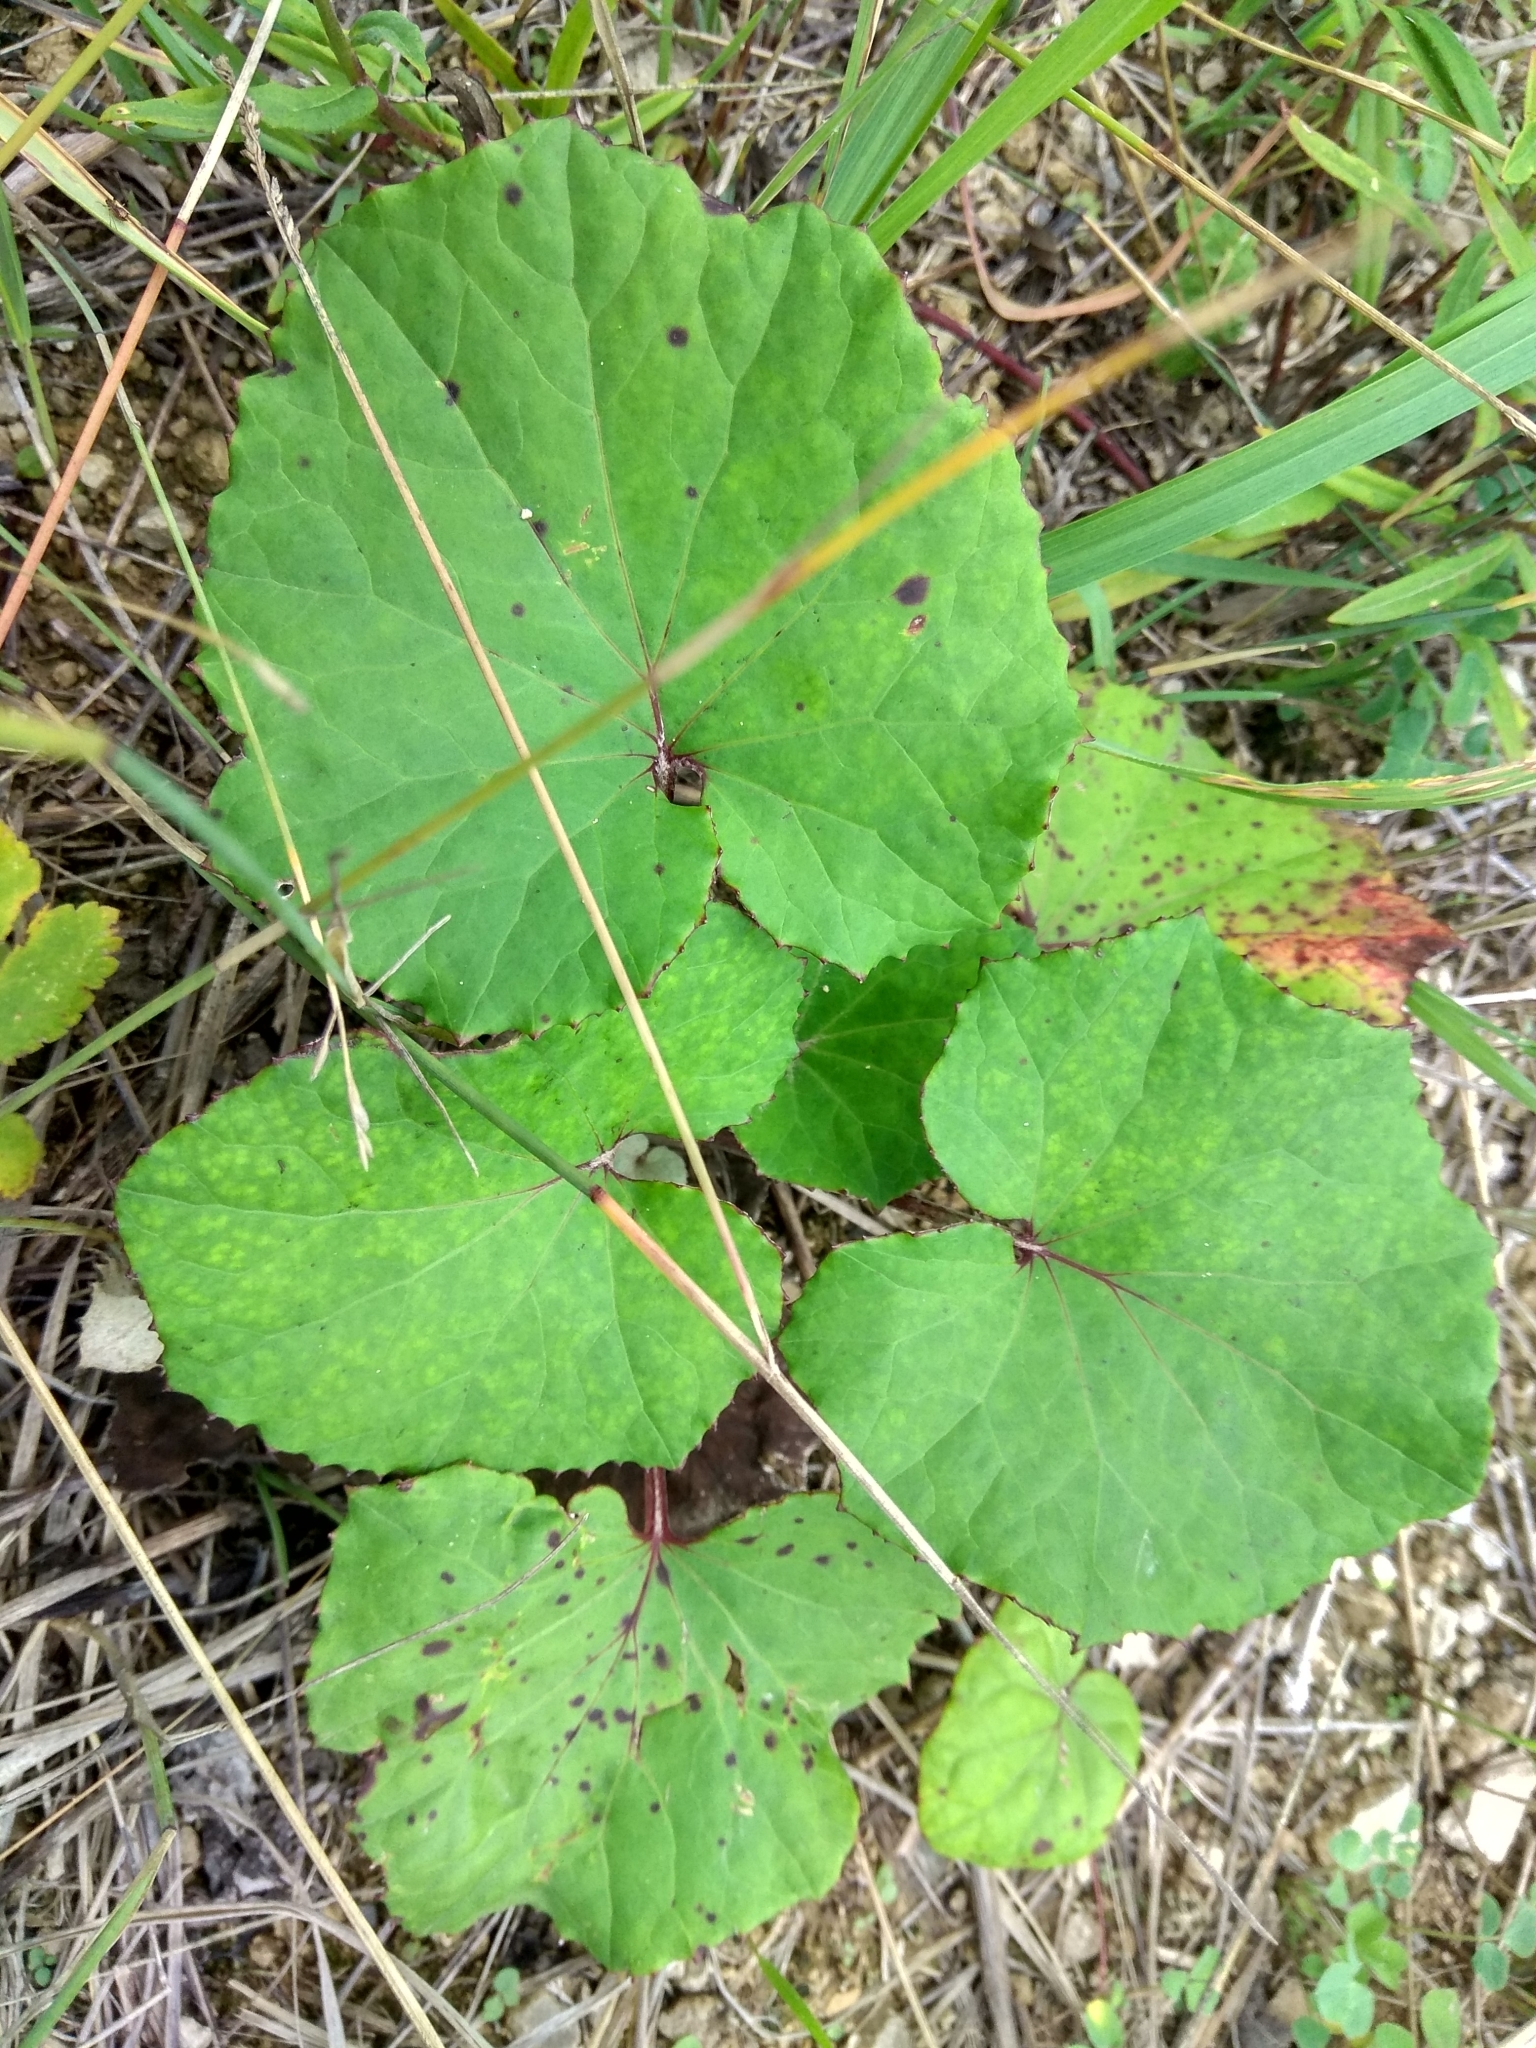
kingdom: Plantae
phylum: Tracheophyta
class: Magnoliopsida
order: Asterales
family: Asteraceae
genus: Tussilago
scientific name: Tussilago farfara
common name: Coltsfoot
